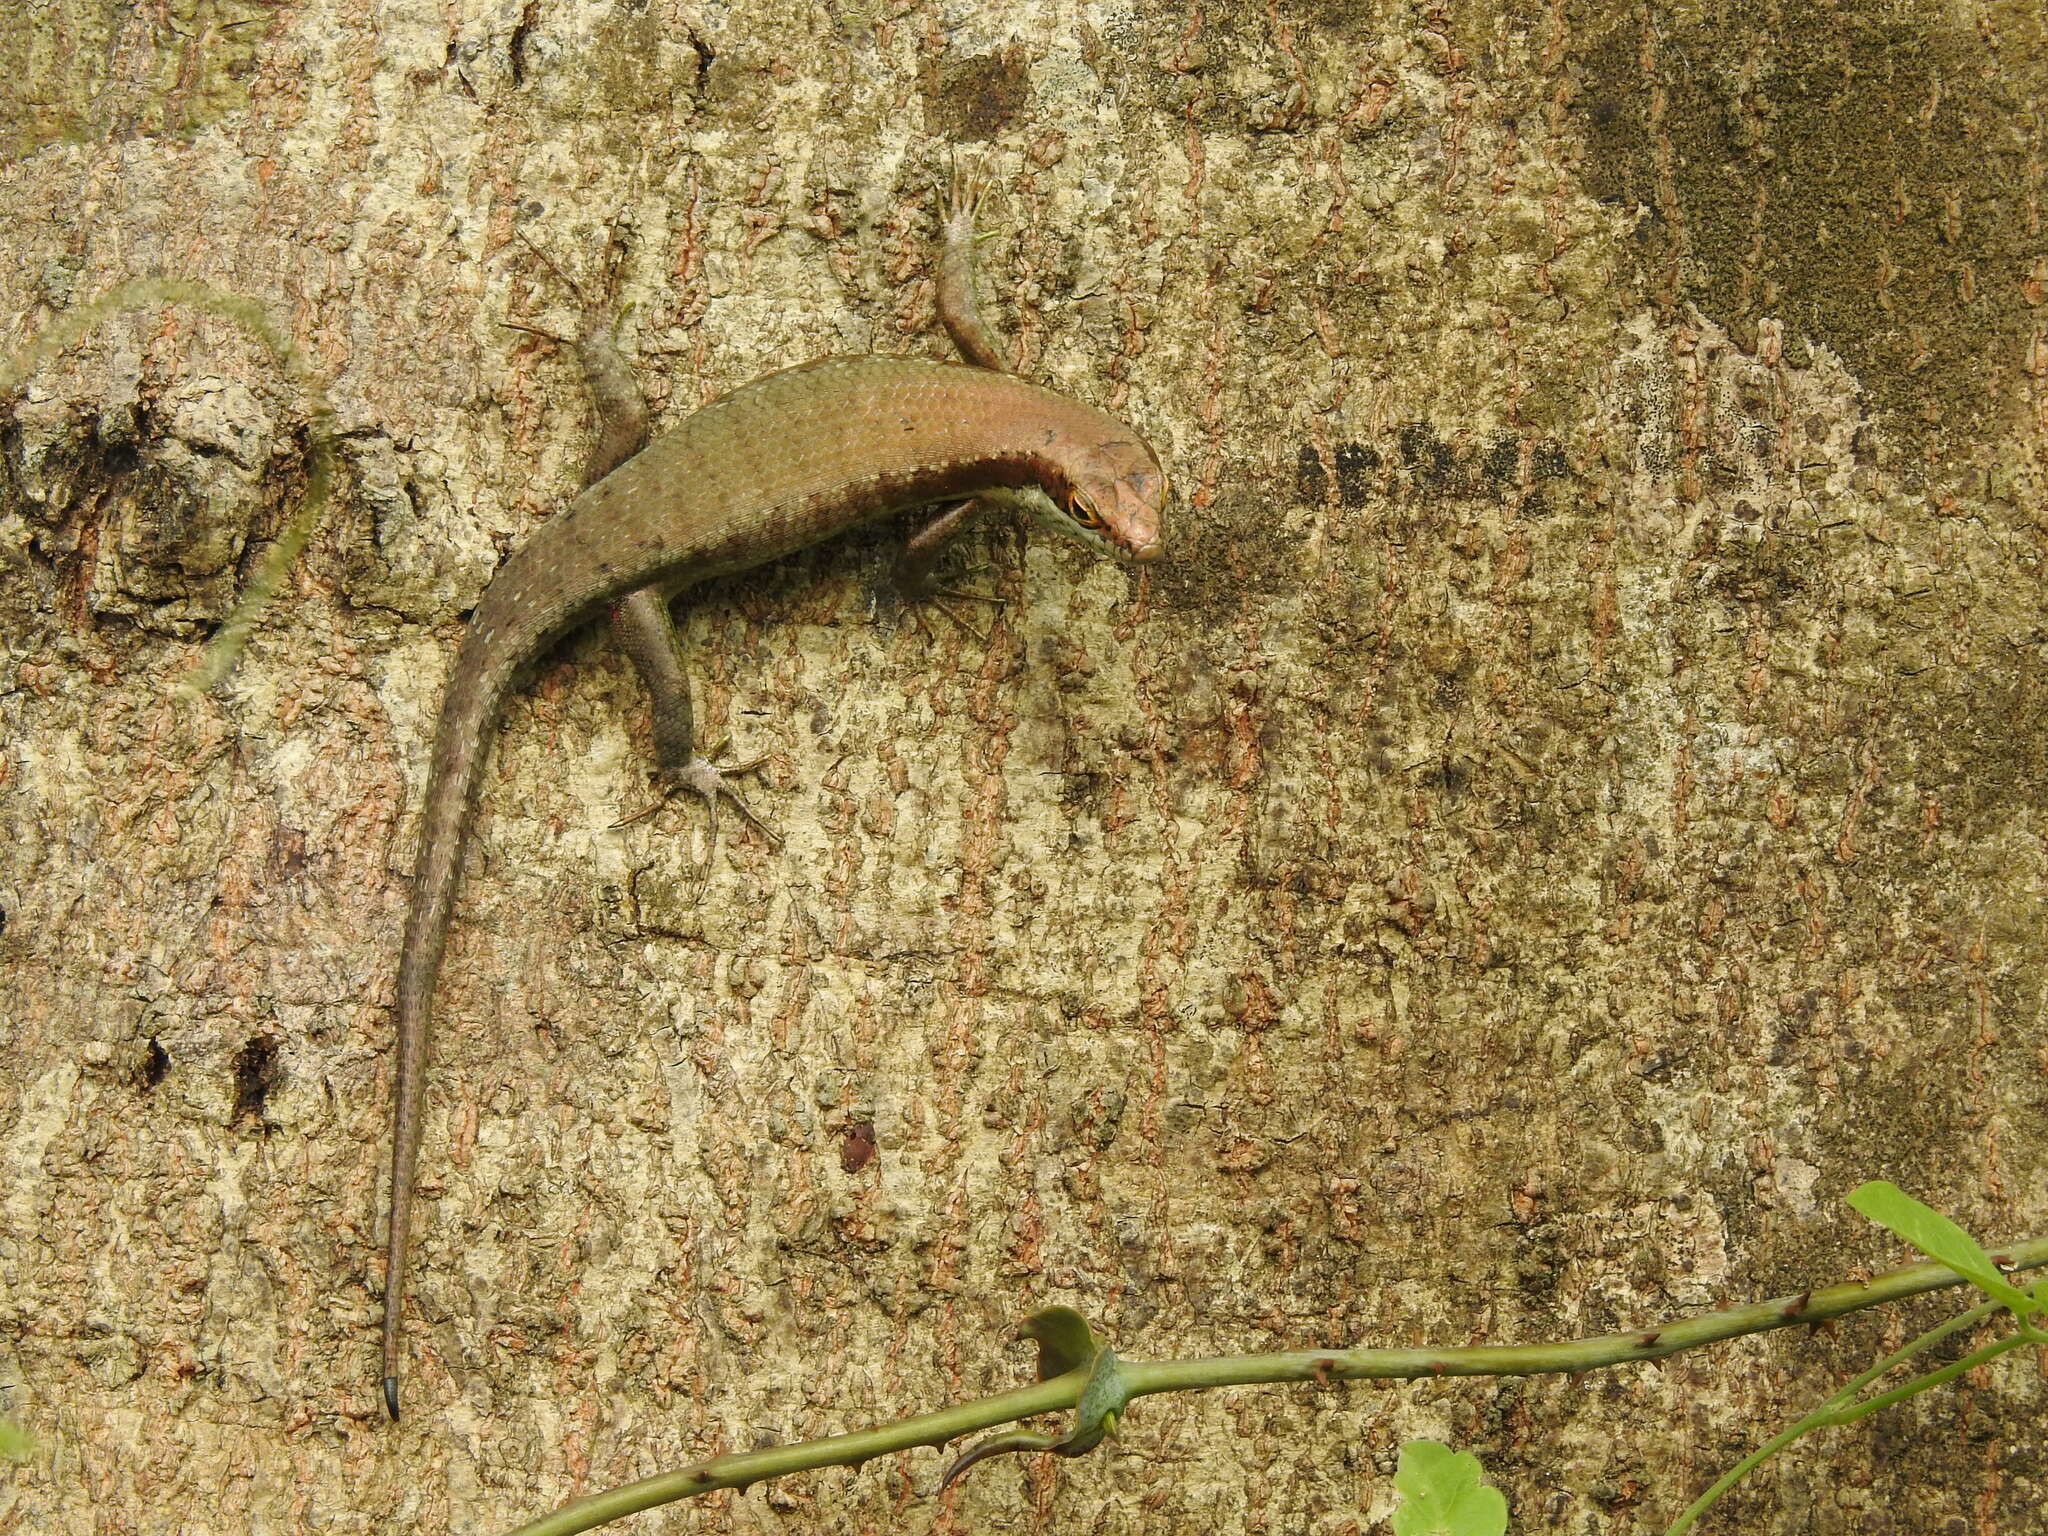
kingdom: Animalia
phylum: Chordata
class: Squamata
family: Scincidae
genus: Trachylepis
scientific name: Trachylepis polytropis
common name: Tropical mabuya
